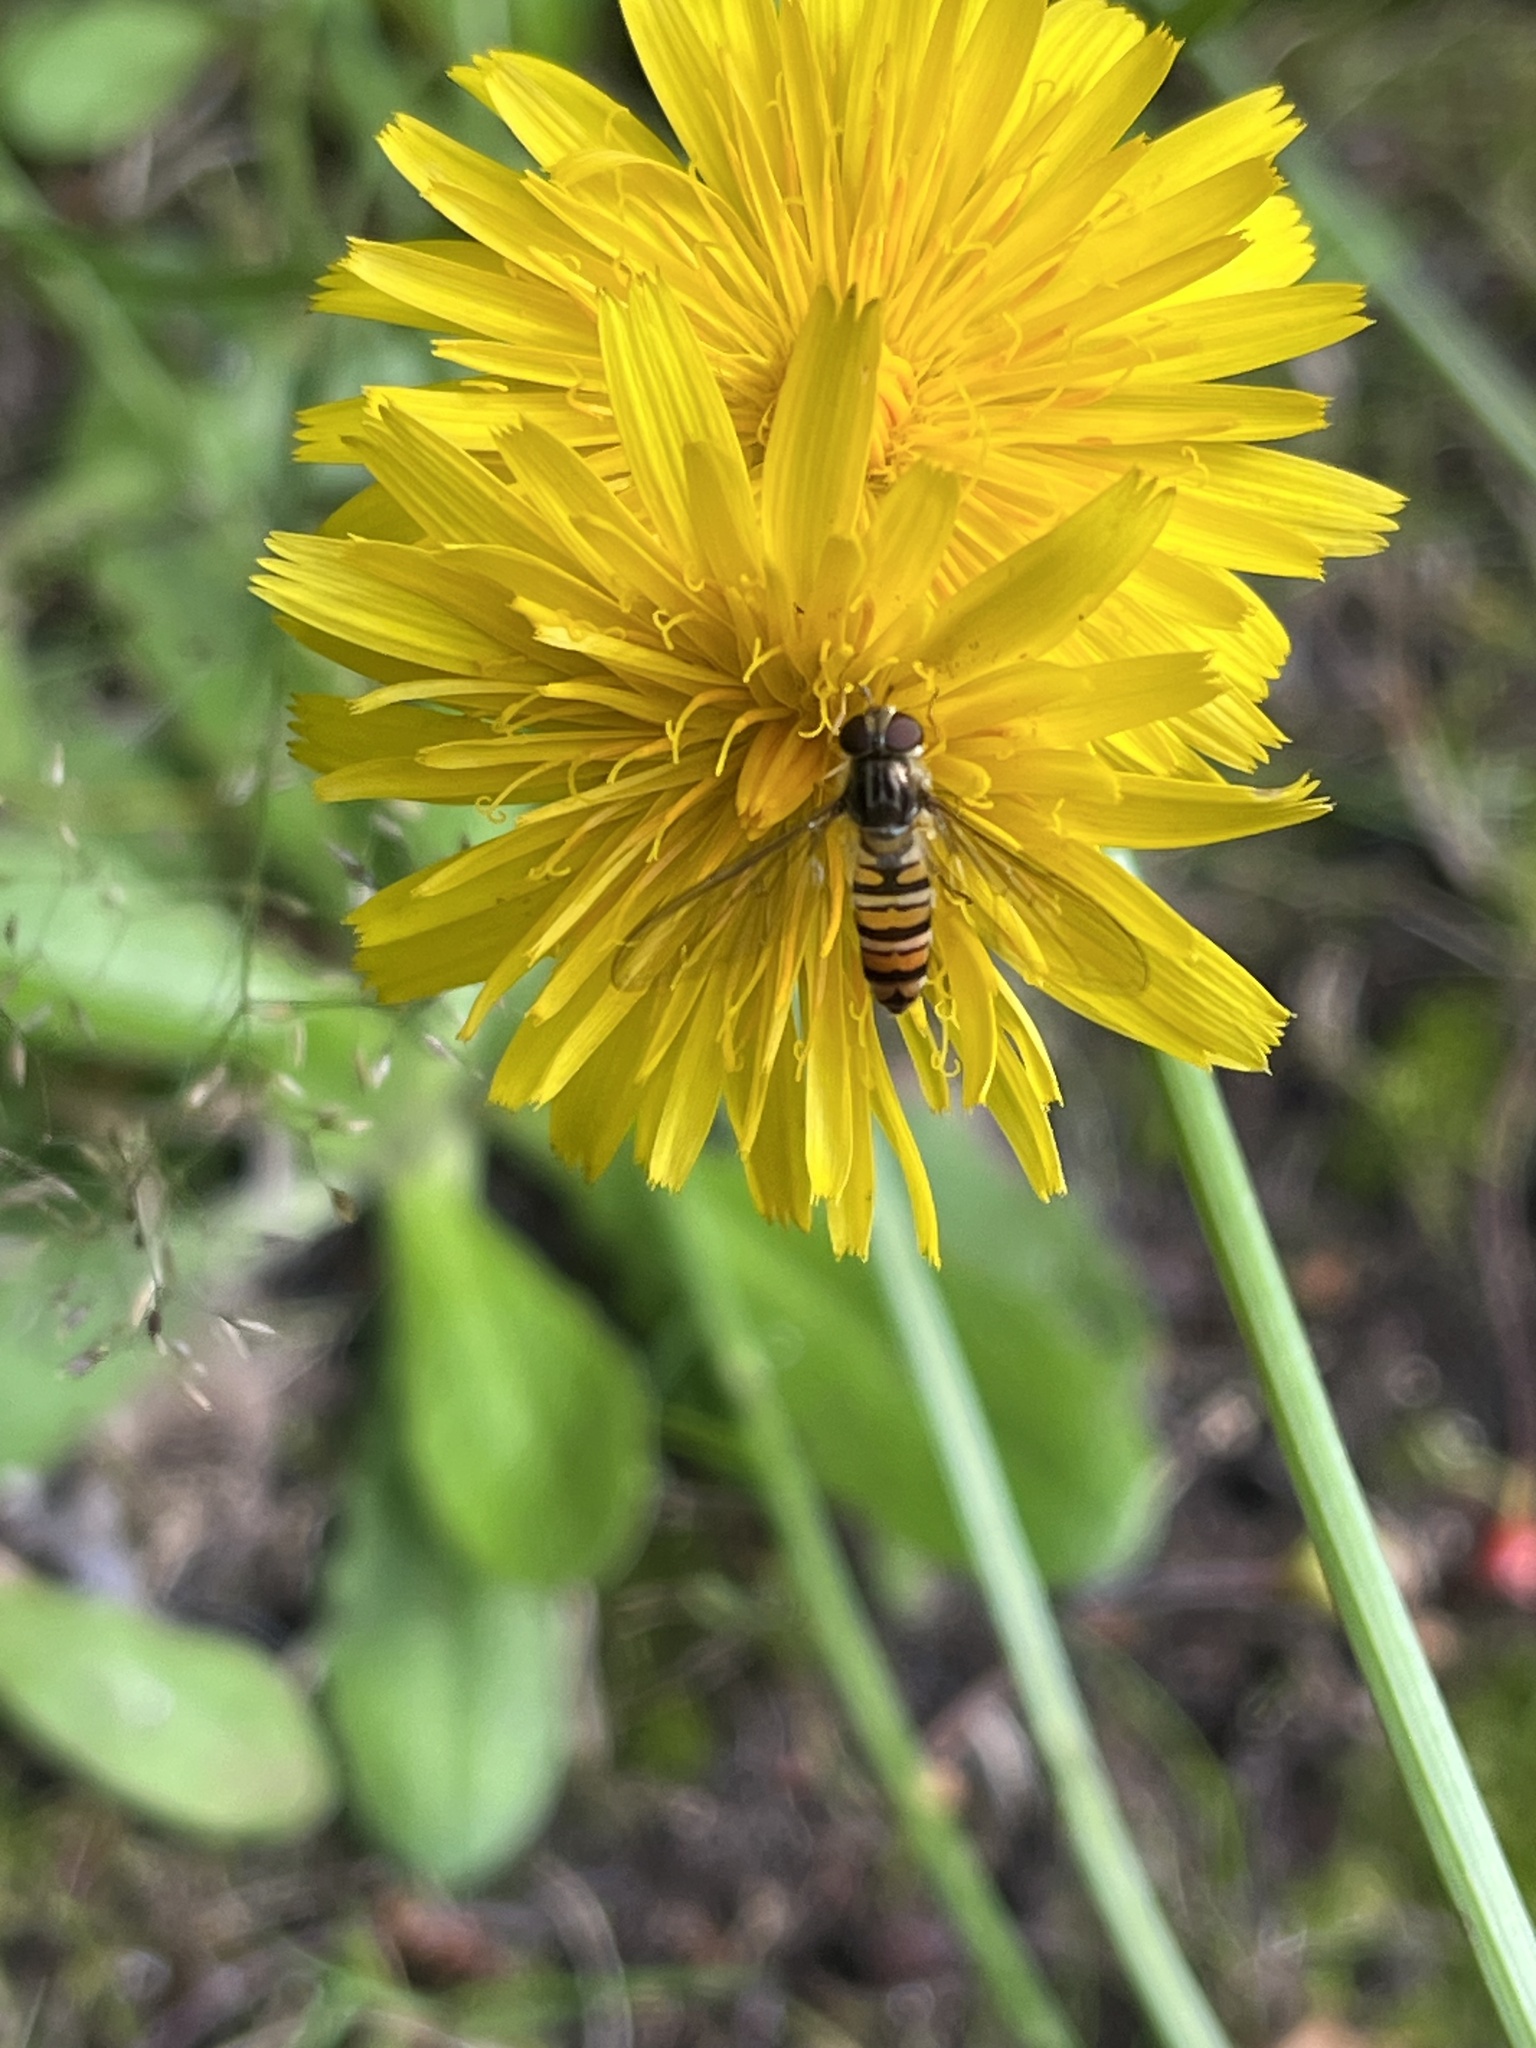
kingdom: Animalia
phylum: Arthropoda
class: Insecta
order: Diptera
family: Syrphidae
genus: Episyrphus
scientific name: Episyrphus balteatus
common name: Marmalade hoverfly
